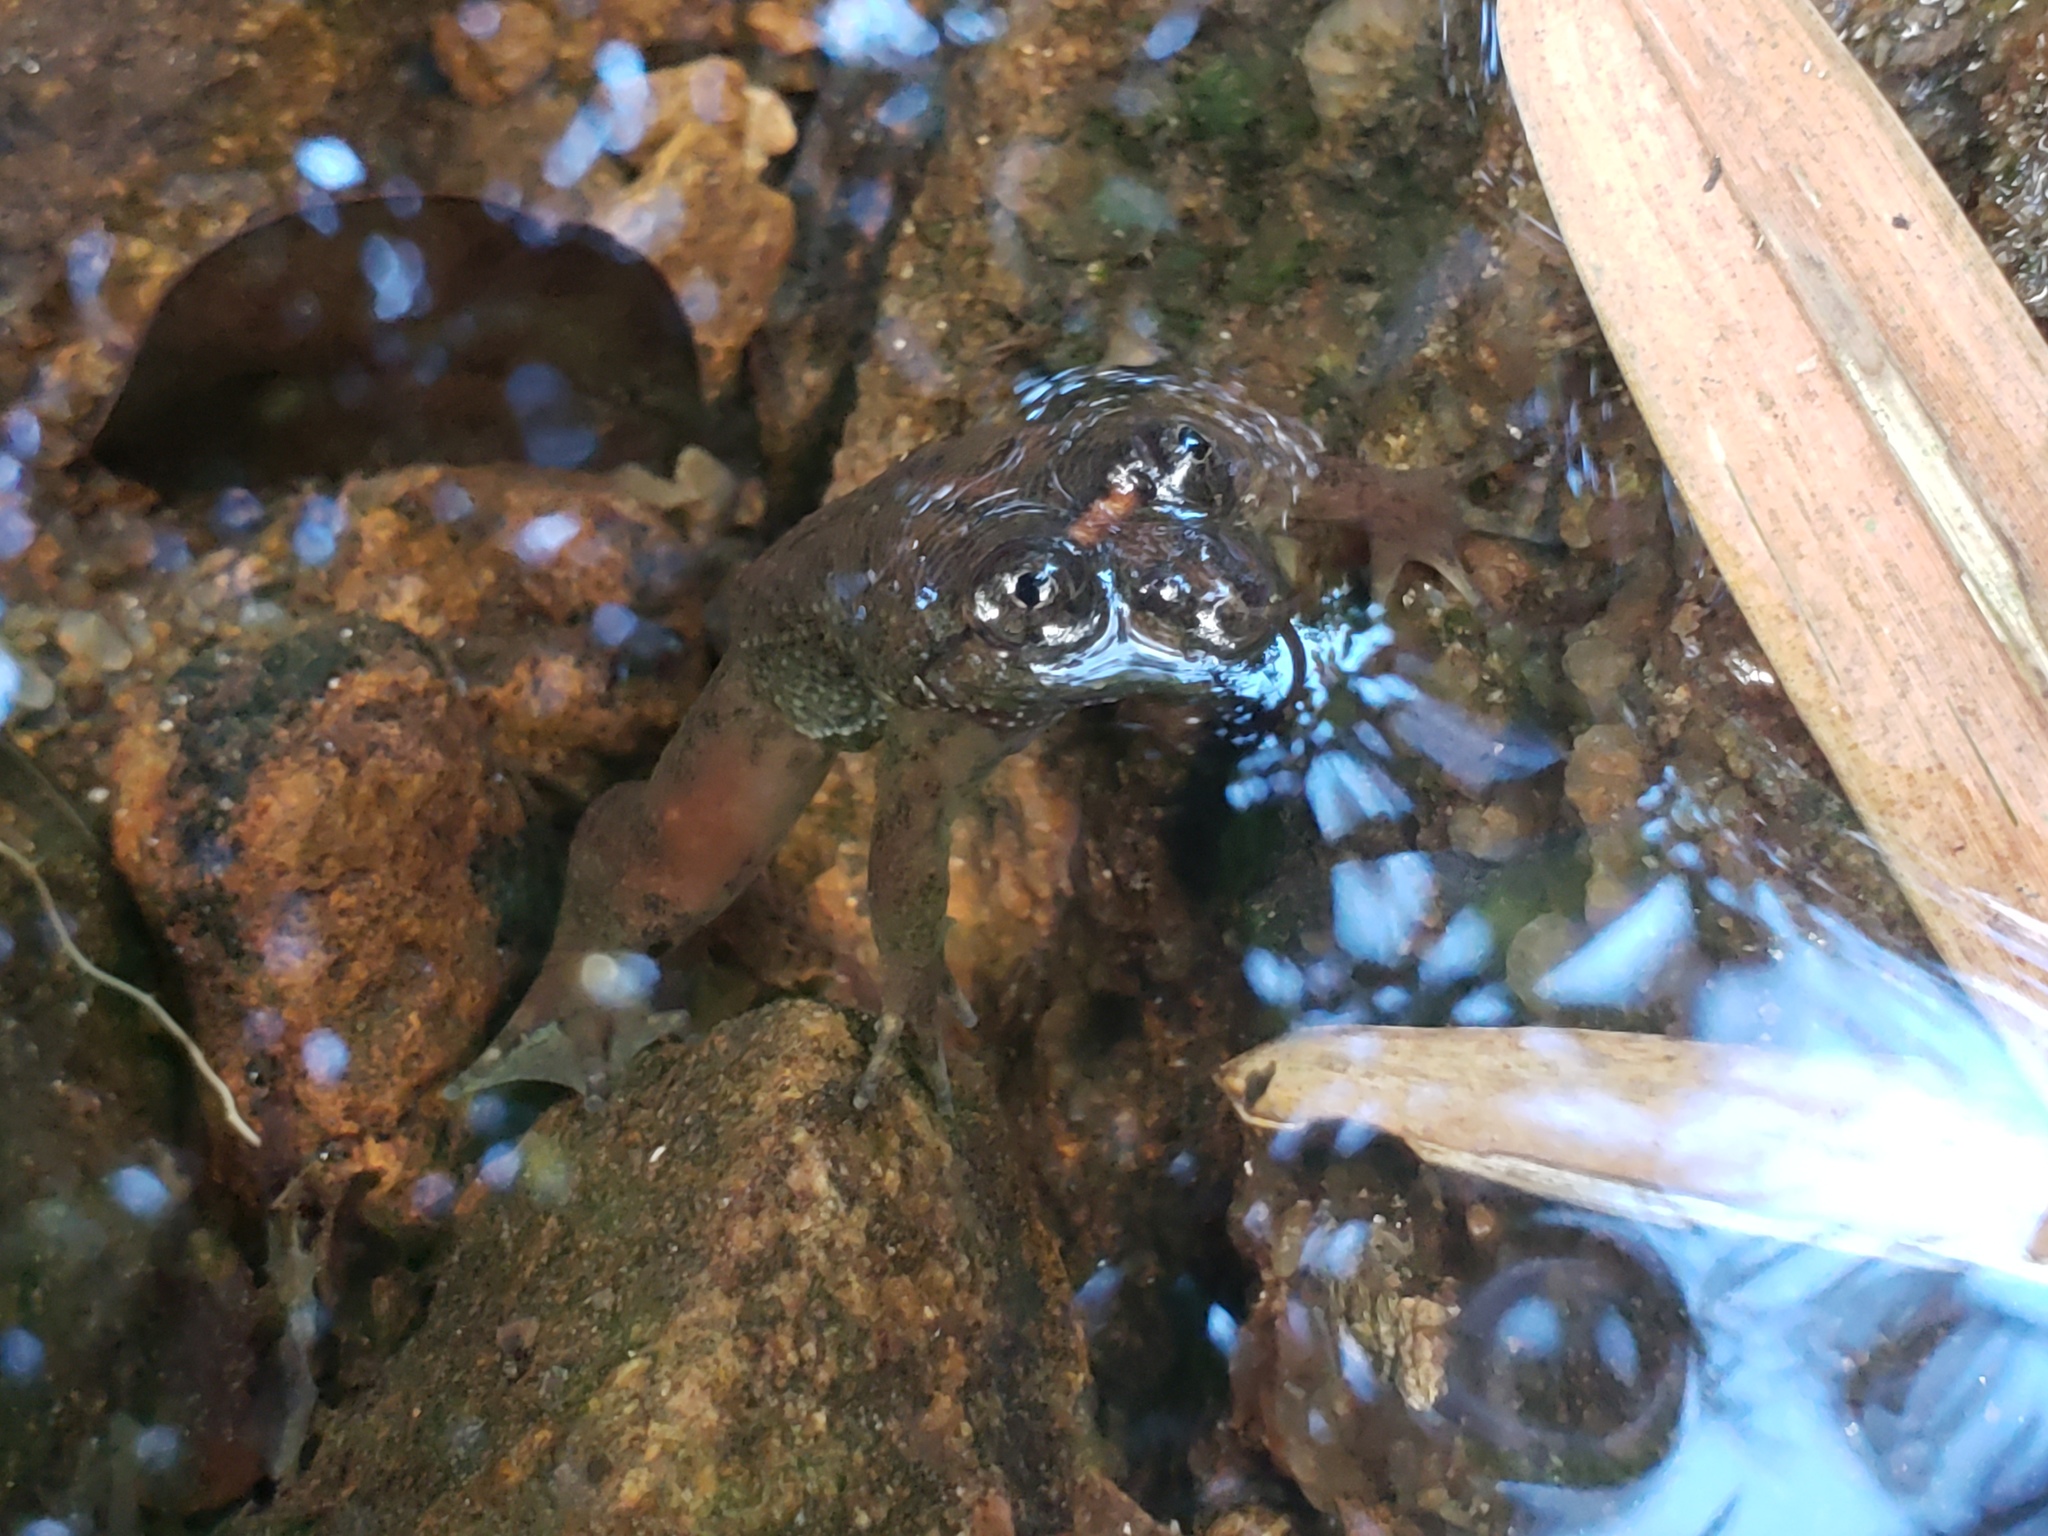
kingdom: Animalia
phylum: Chordata
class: Amphibia
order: Anura
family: Nyctibatrachidae
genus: Lankanectes
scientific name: Lankanectes pera
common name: Corrugated frogs
